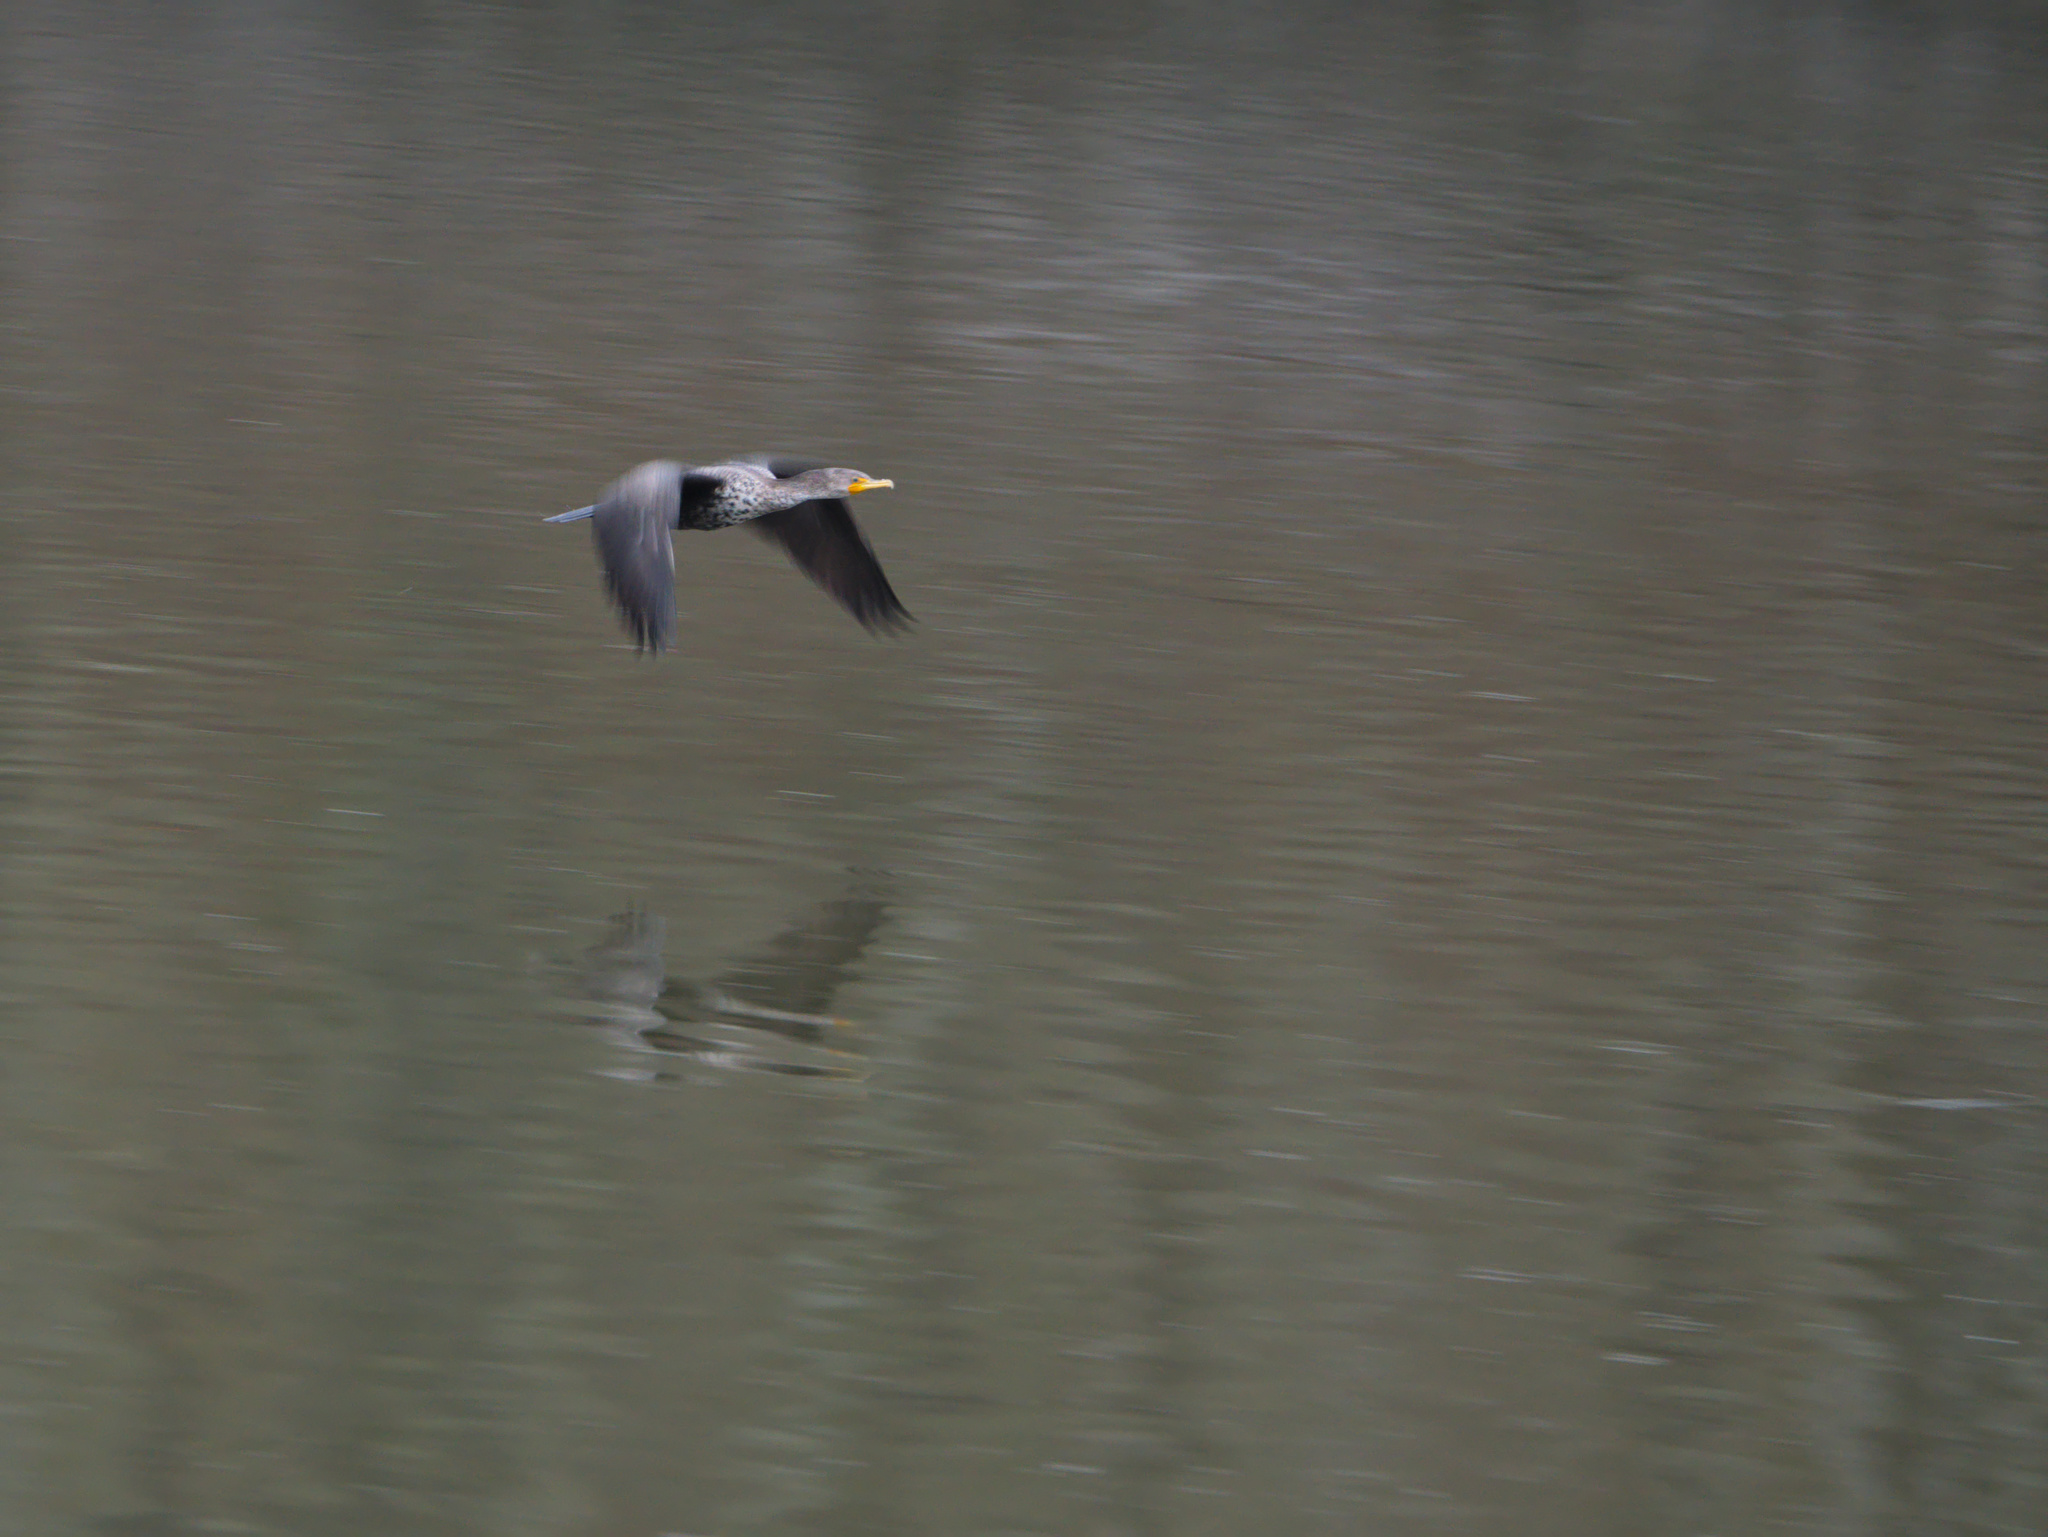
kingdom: Animalia
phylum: Chordata
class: Aves
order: Suliformes
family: Phalacrocoracidae
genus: Phalacrocorax
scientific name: Phalacrocorax auritus
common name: Double-crested cormorant
